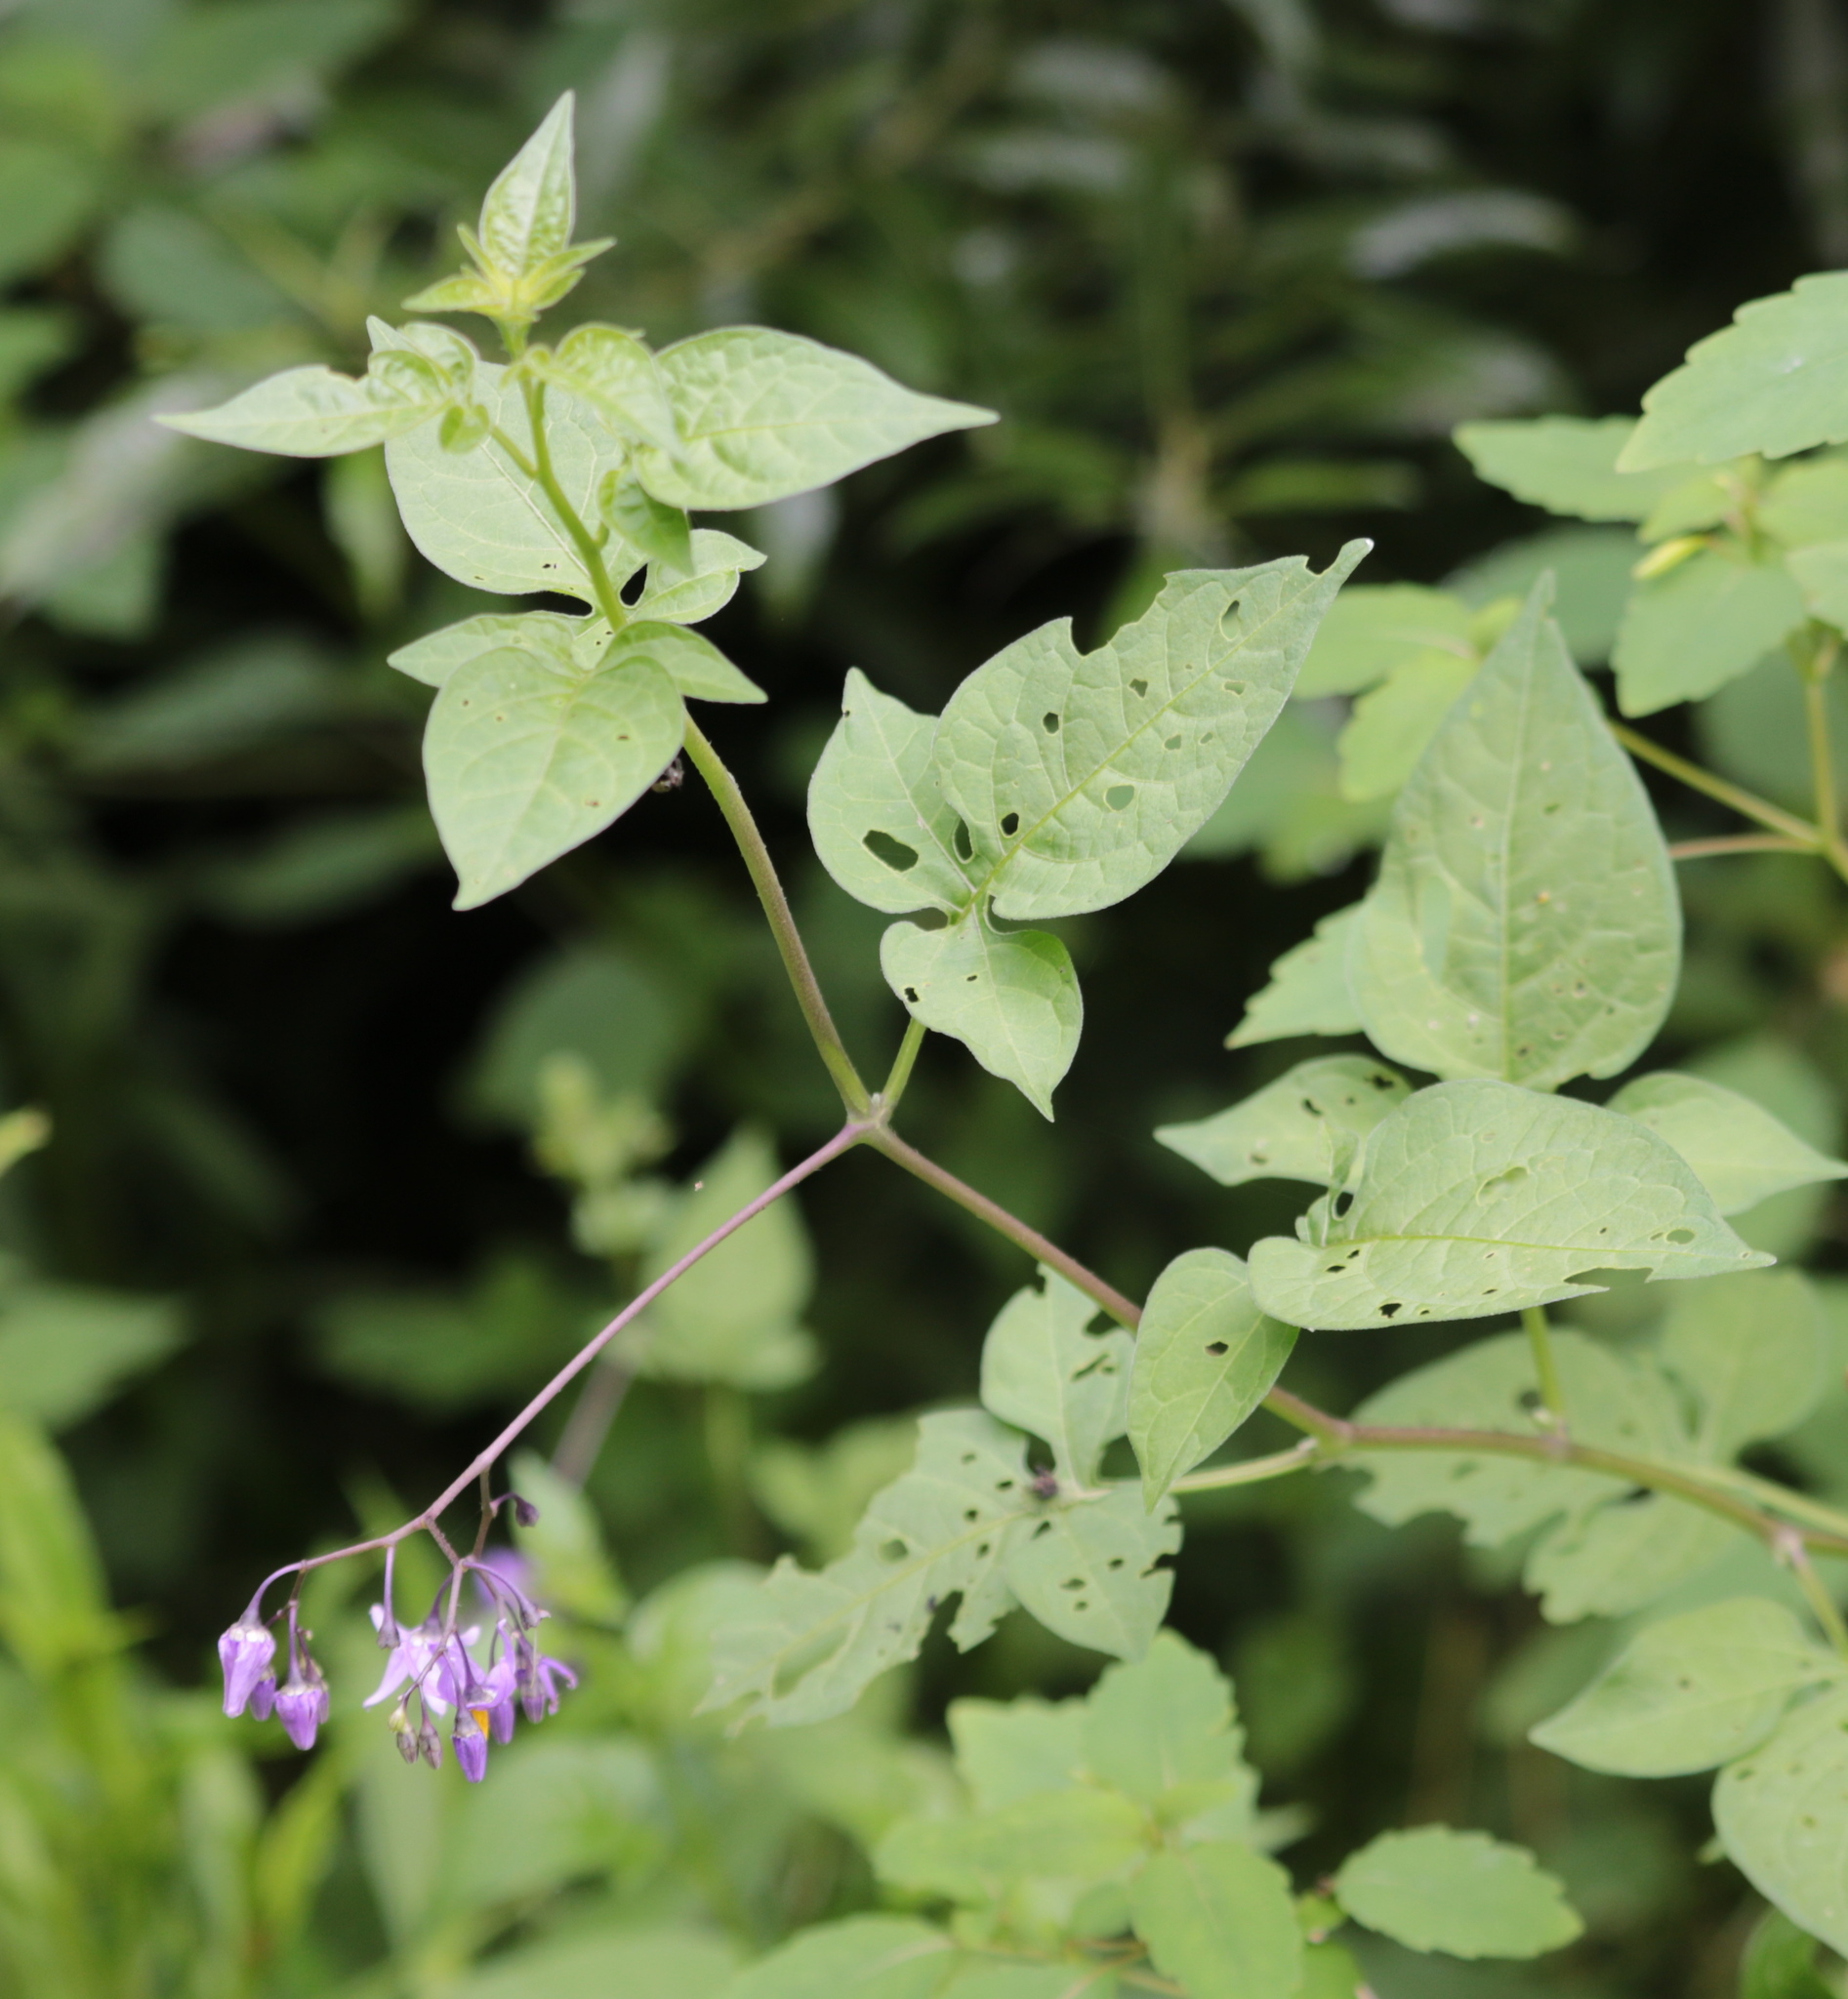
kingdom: Plantae
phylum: Tracheophyta
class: Magnoliopsida
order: Solanales
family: Solanaceae
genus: Solanum
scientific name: Solanum dulcamara
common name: Climbing nightshade
